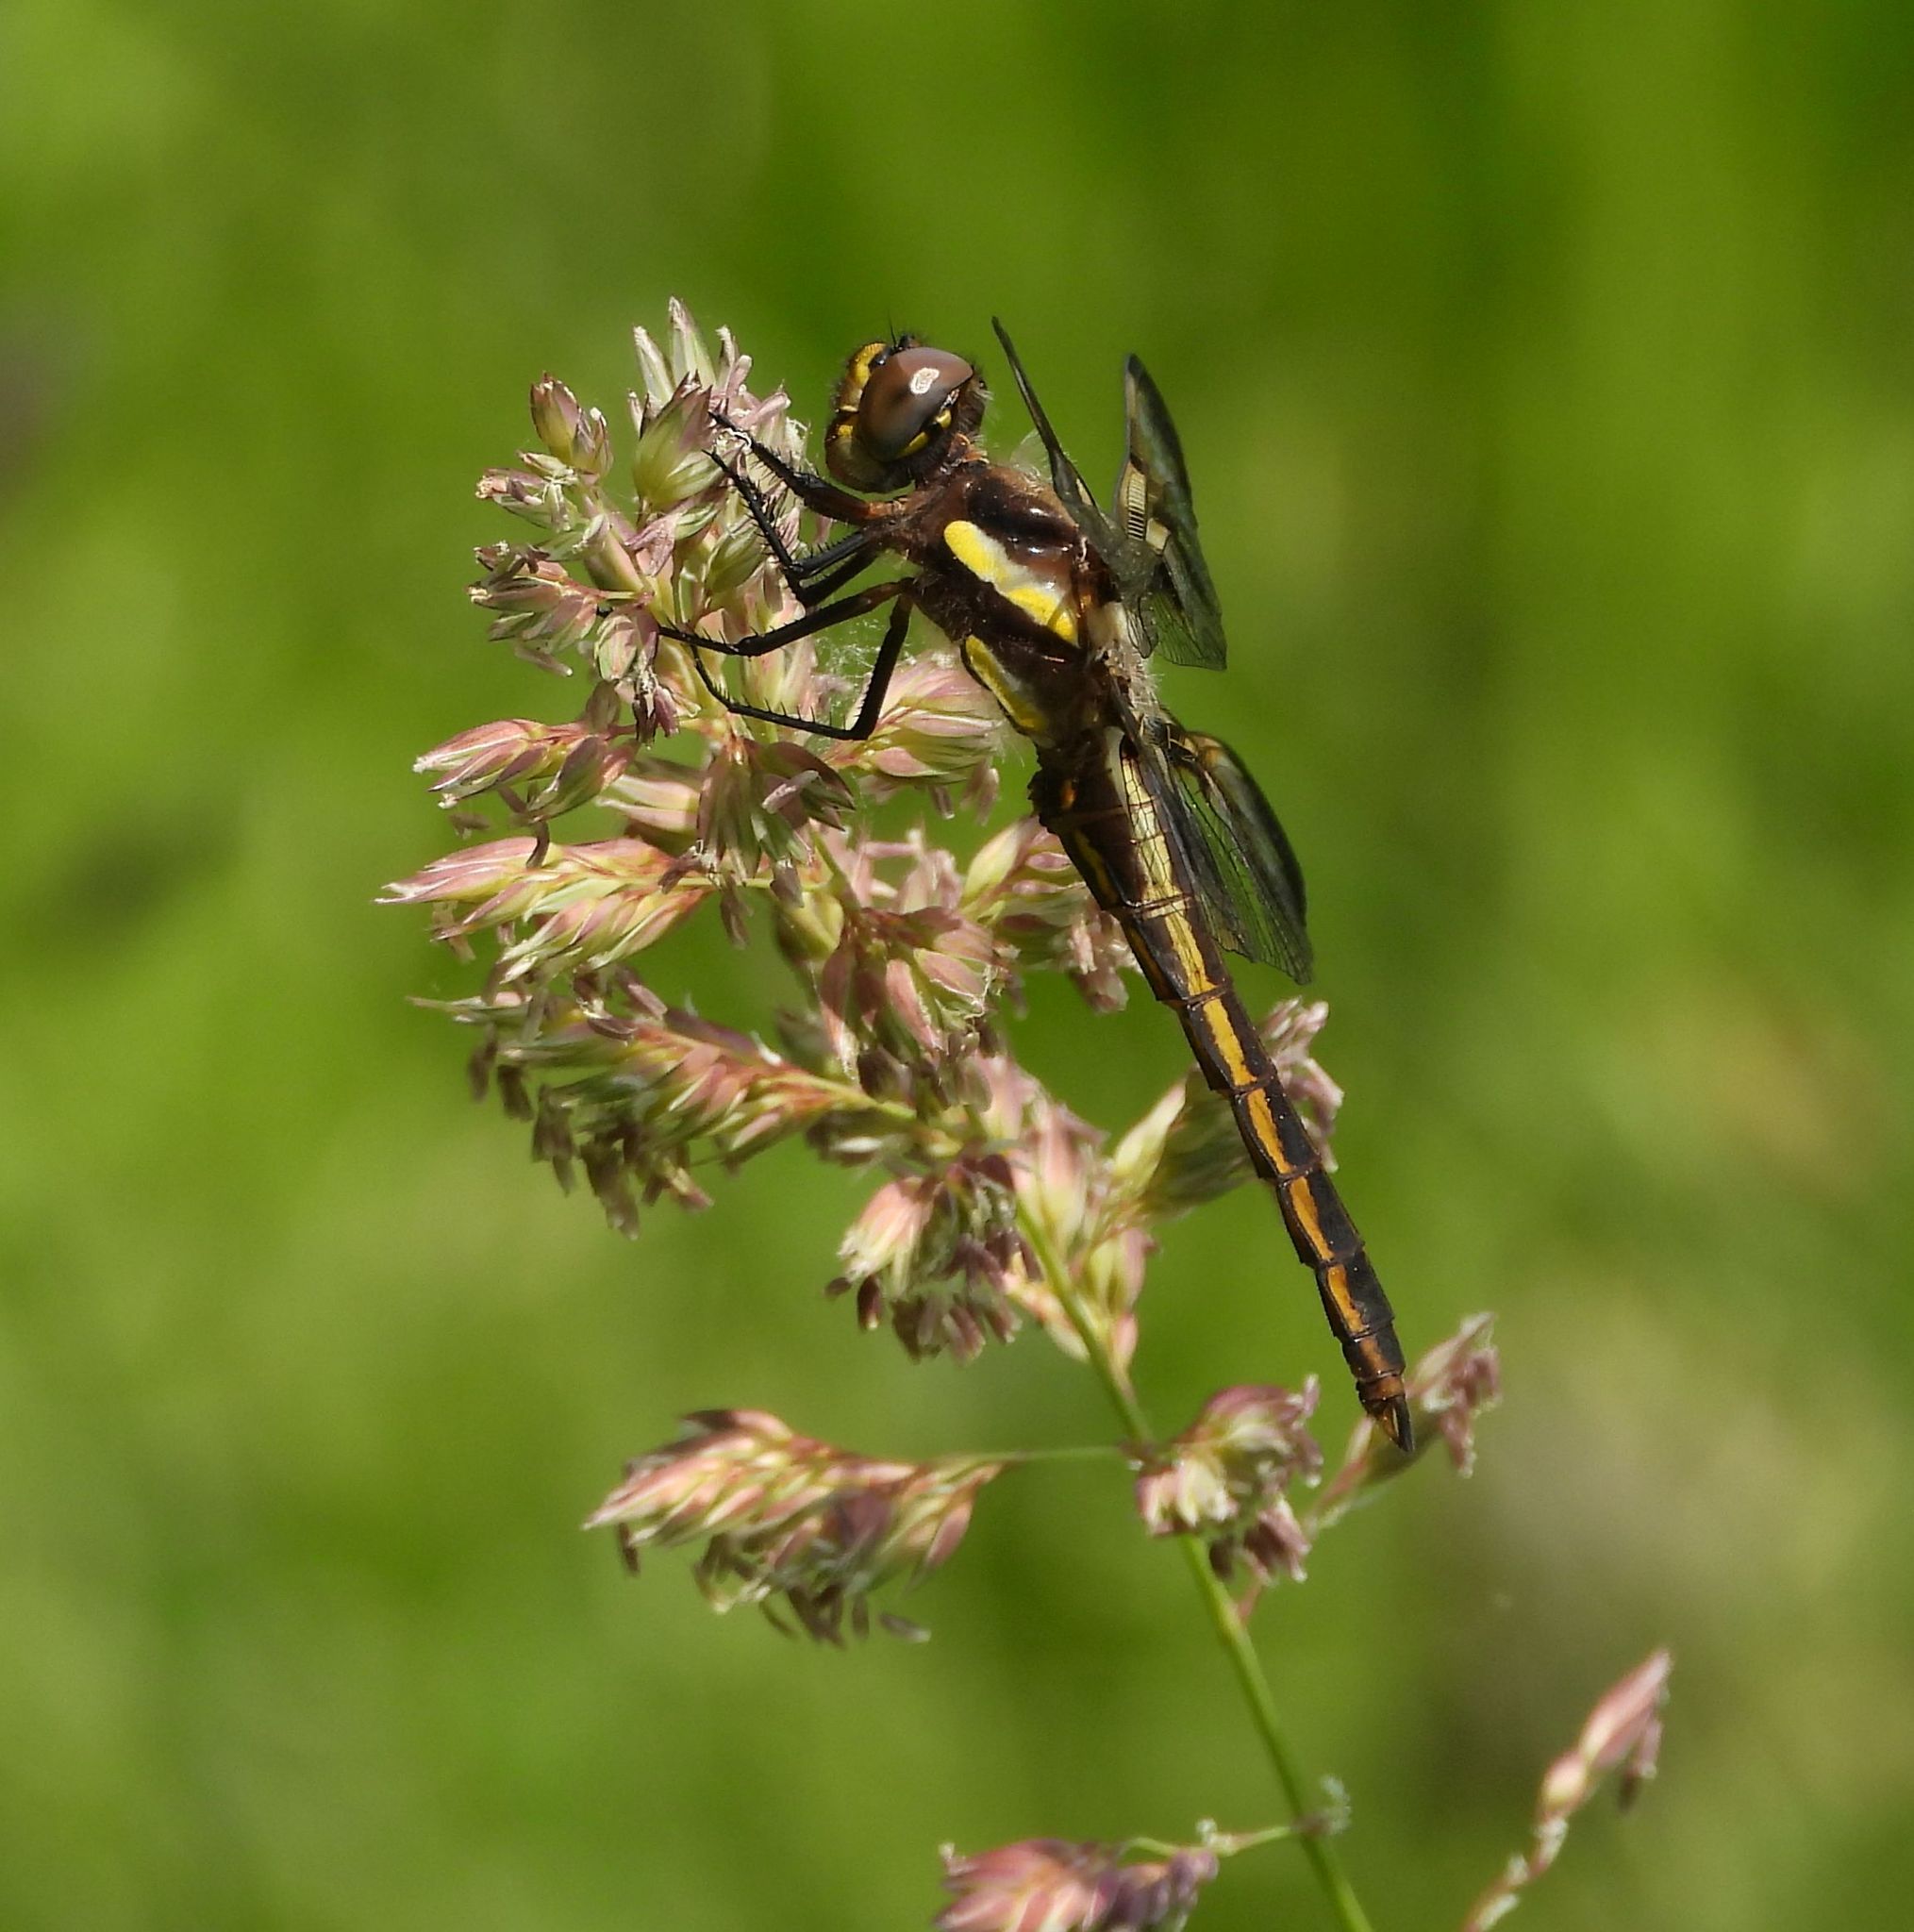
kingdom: Animalia
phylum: Arthropoda
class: Insecta
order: Odonata
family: Libellulidae
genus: Libellula
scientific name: Libellula pulchella
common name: Twelve-spotted skimmer
